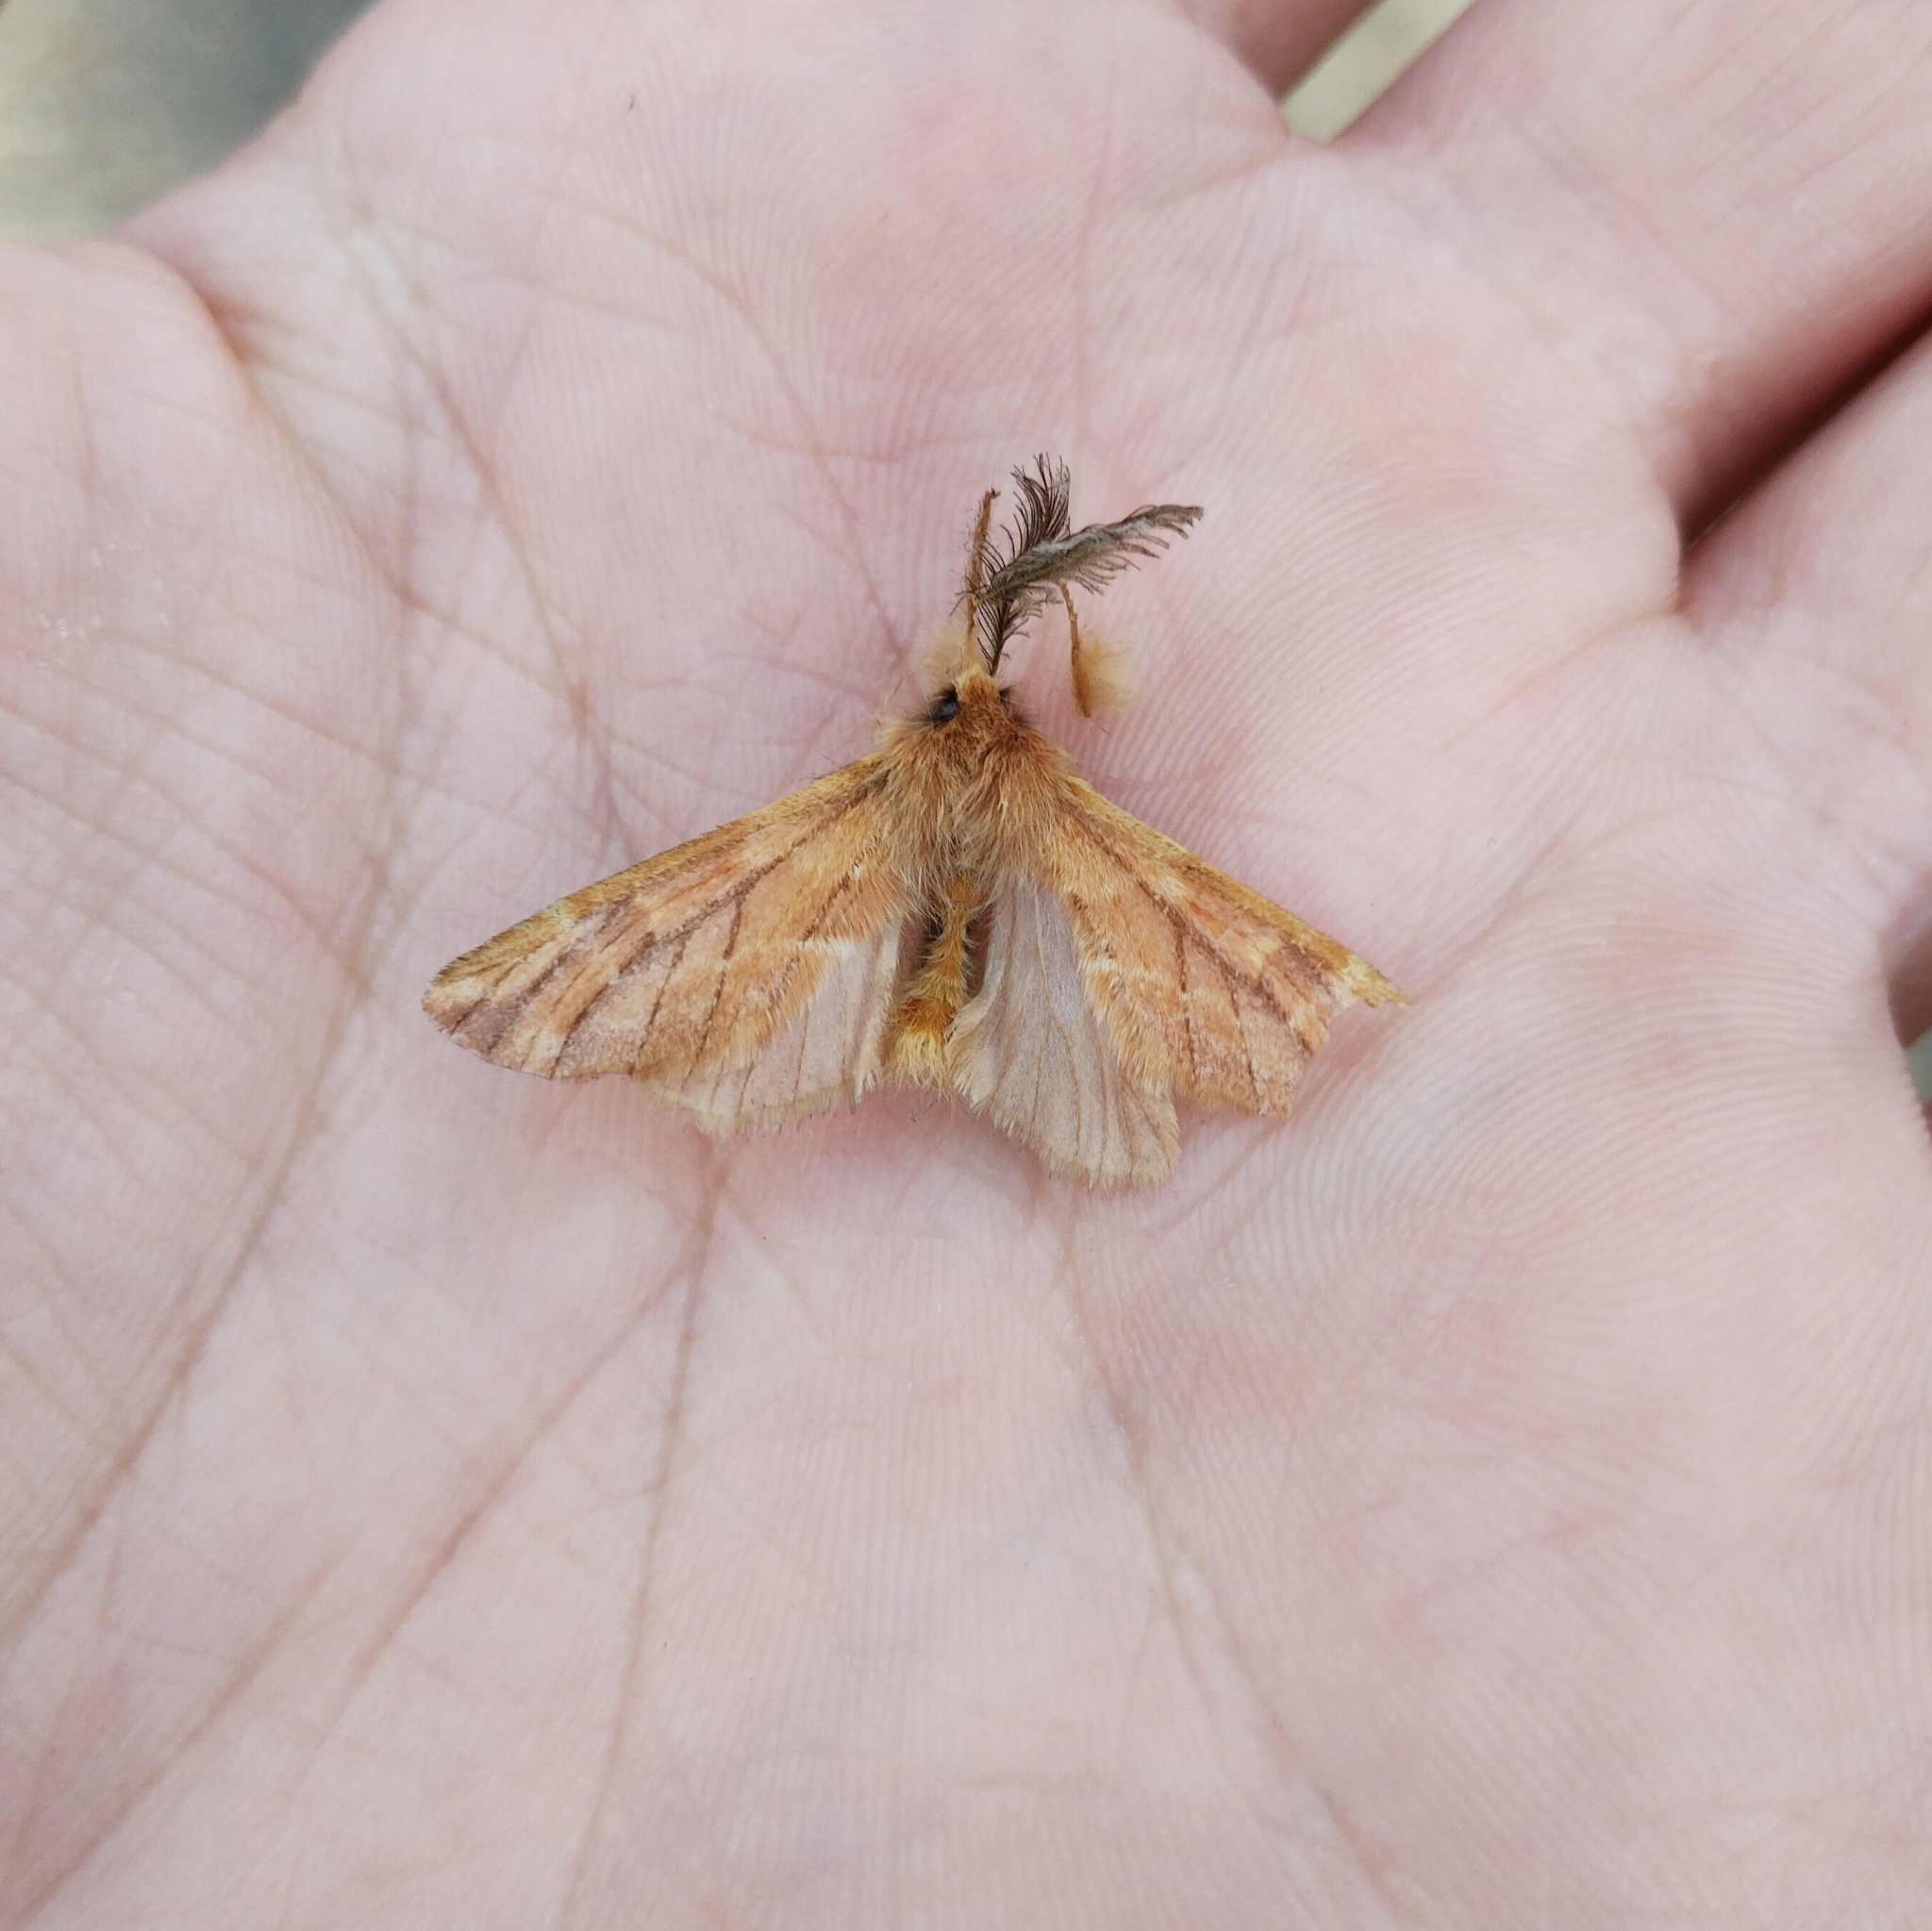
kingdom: Animalia
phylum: Arthropoda
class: Insecta
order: Lepidoptera
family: Notodontidae
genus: Ptilophora
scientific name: Ptilophora plumigera
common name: Plumed prominent
